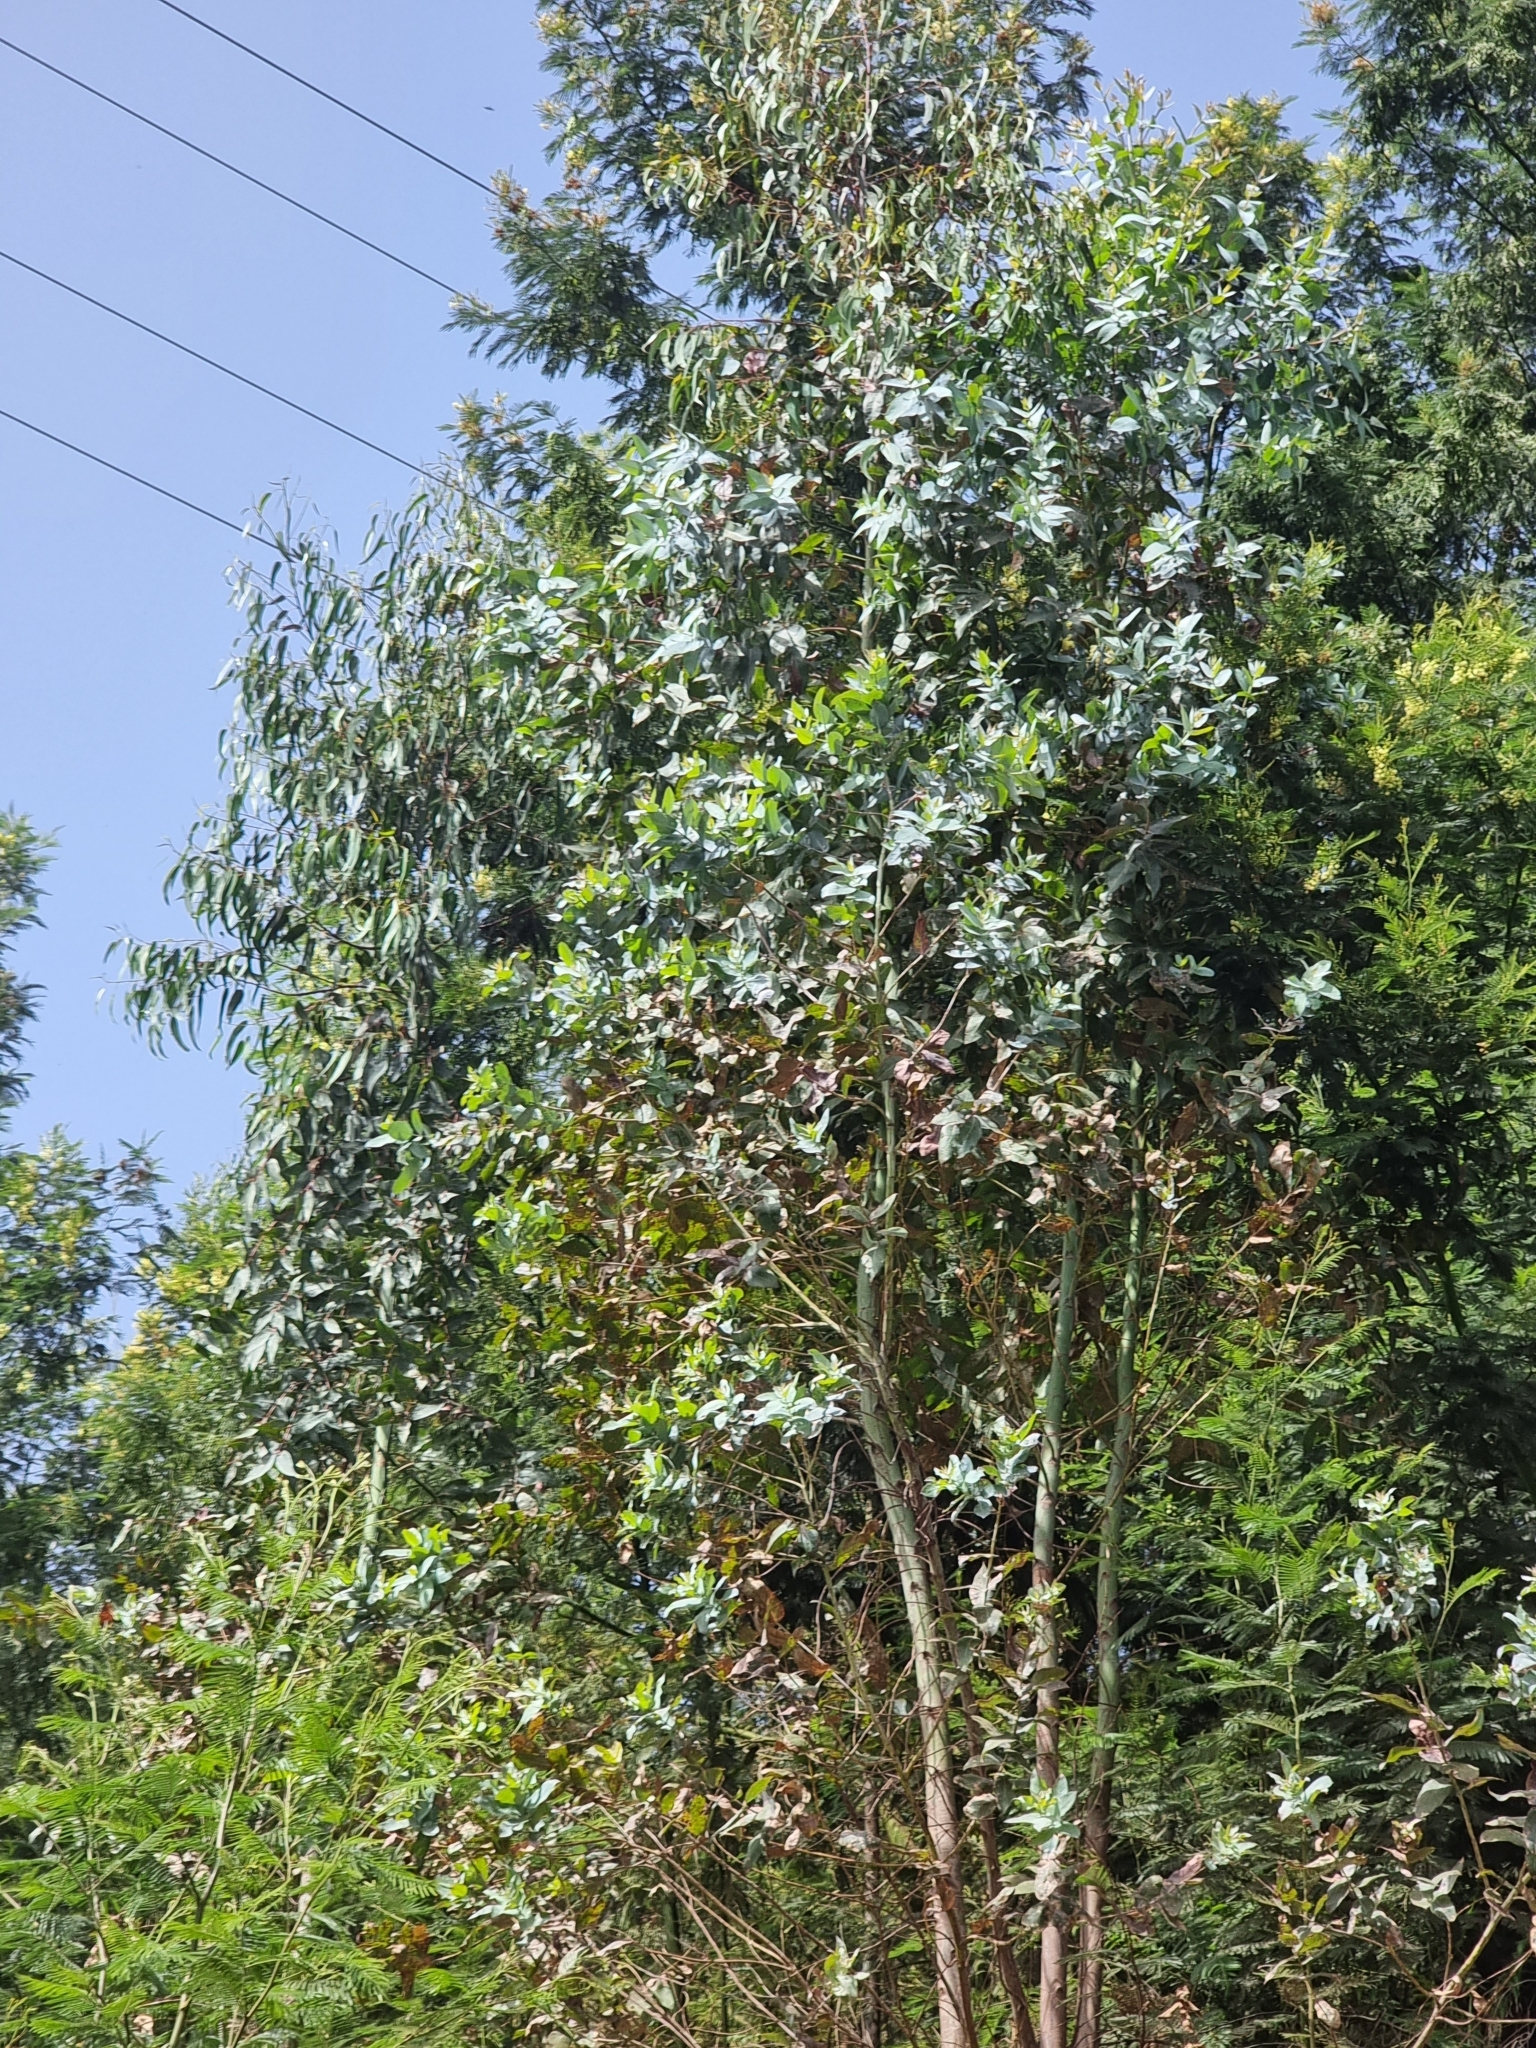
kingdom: Plantae
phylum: Tracheophyta
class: Magnoliopsida
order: Myrtales
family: Myrtaceae
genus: Eucalyptus
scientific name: Eucalyptus globulus
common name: Southern blue-gum
